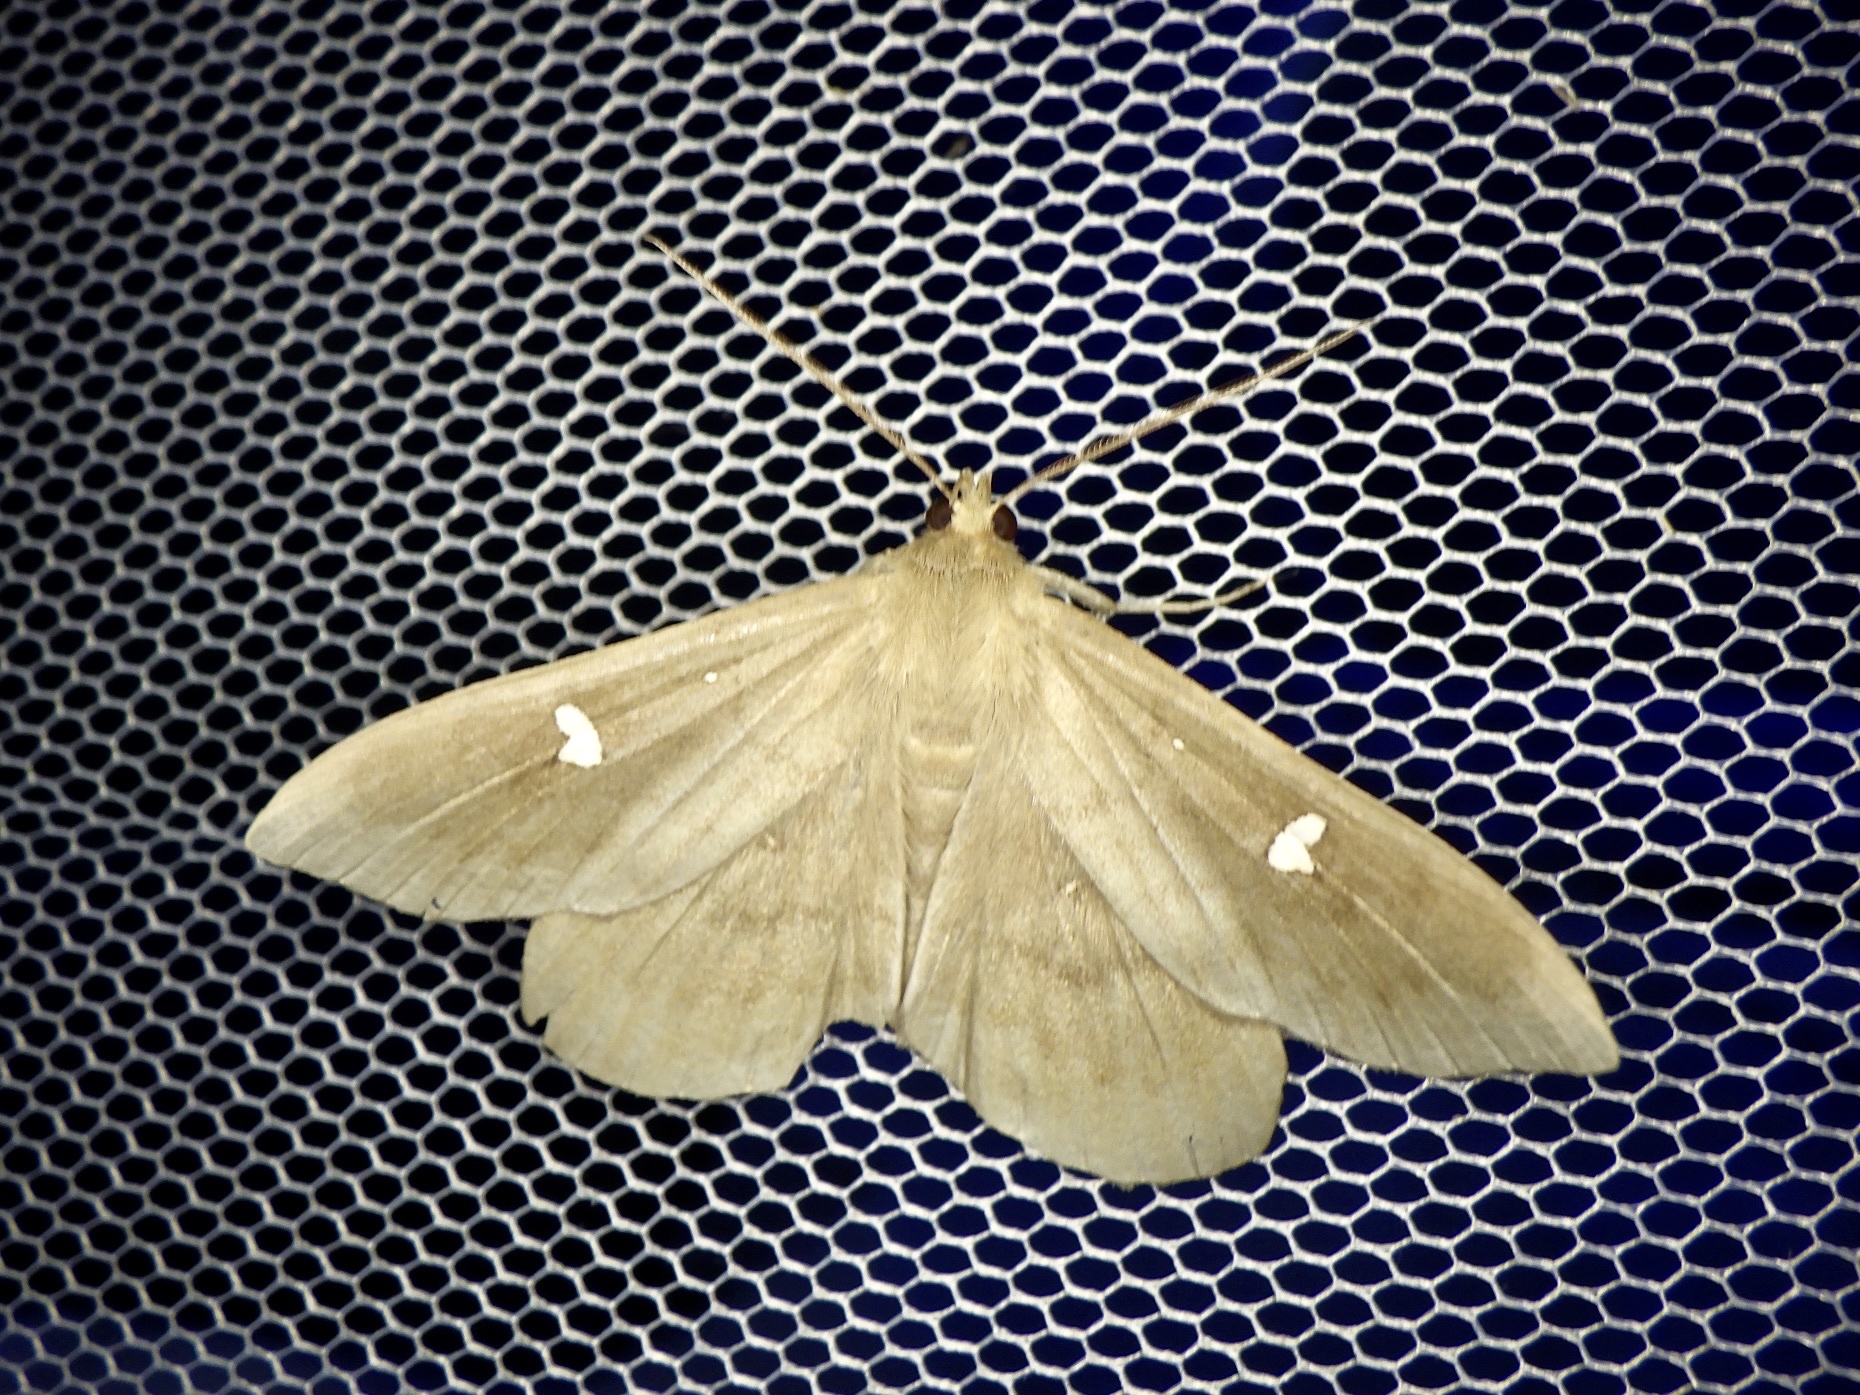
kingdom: Animalia
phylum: Arthropoda
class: Insecta
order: Lepidoptera
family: Erebidae
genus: Edessena
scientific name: Edessena hamada
